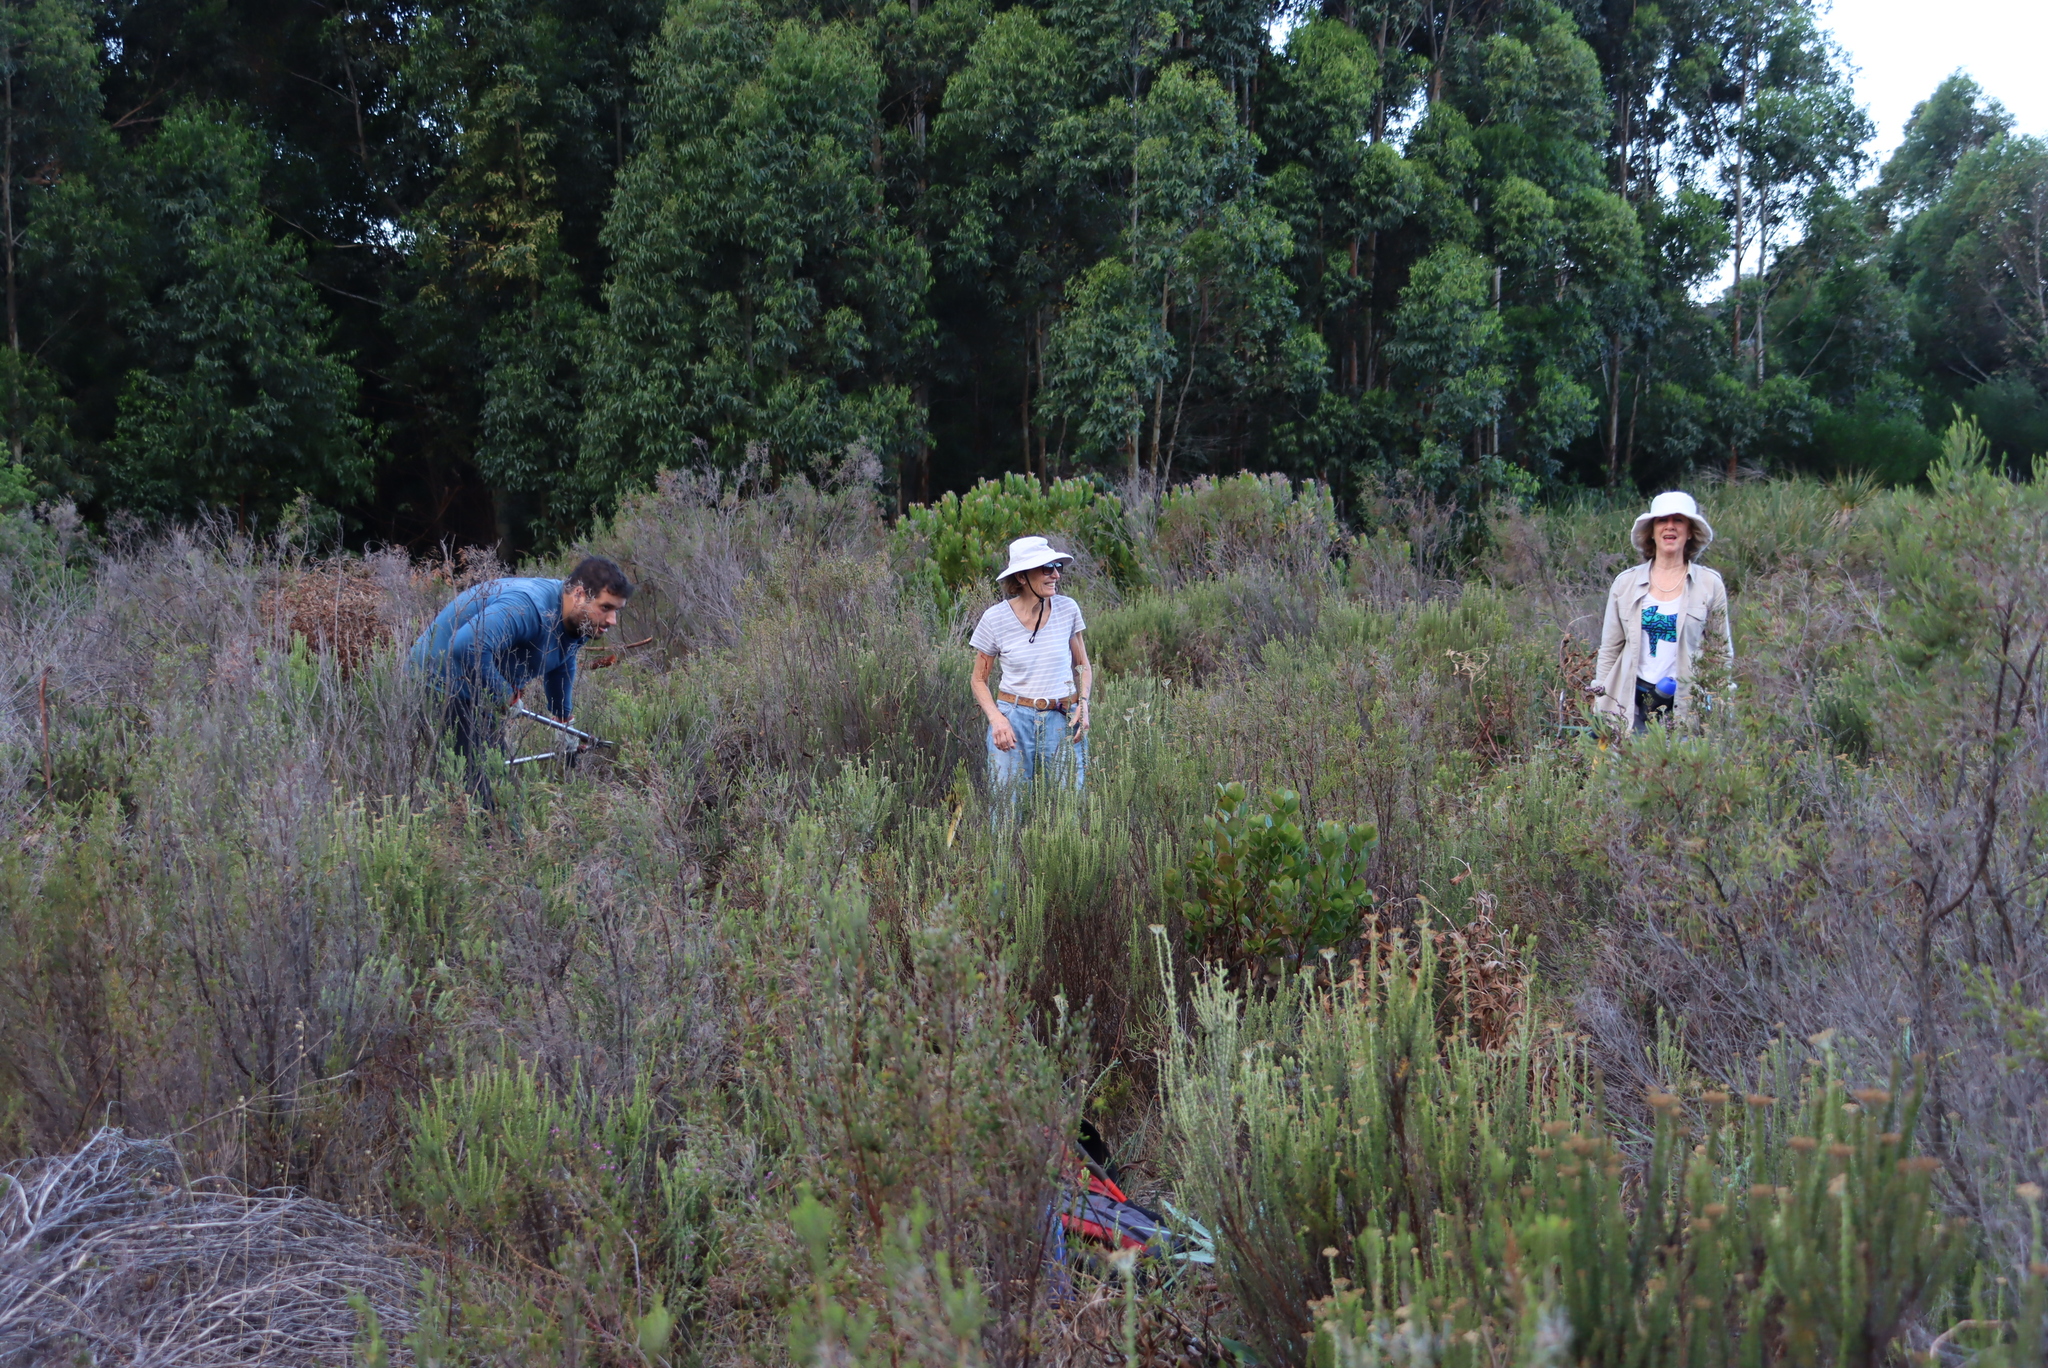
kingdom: Plantae
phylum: Tracheophyta
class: Magnoliopsida
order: Asterales
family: Asteraceae
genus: Metalasia
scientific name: Metalasia densa
